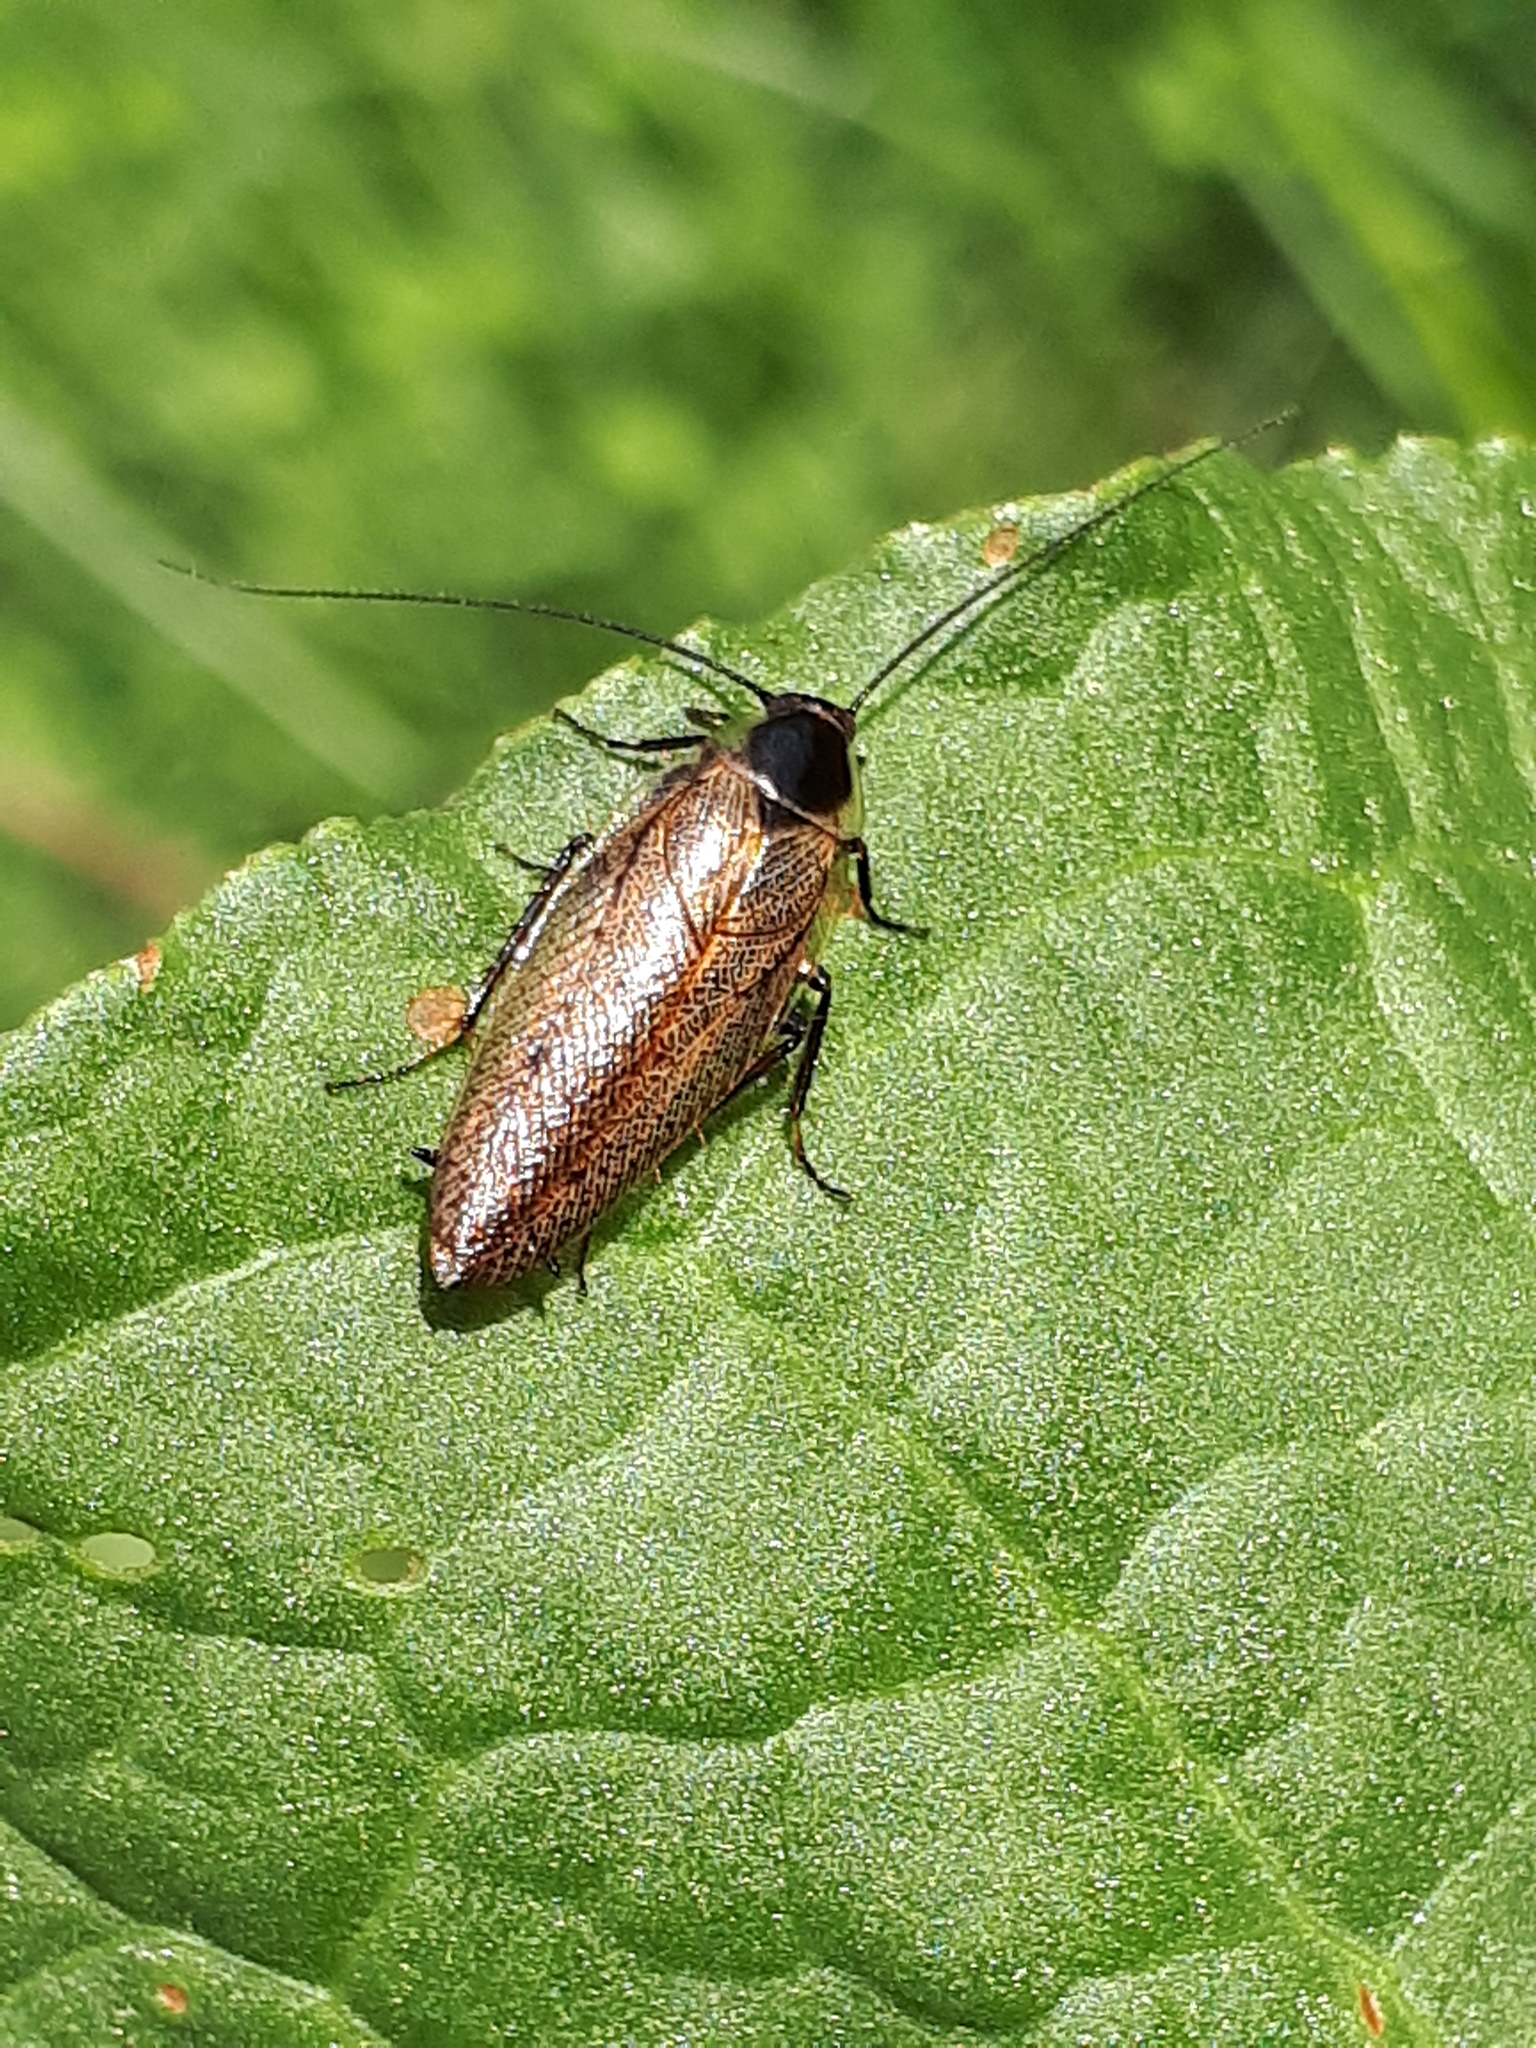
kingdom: Animalia
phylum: Arthropoda
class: Insecta
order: Blattodea
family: Ectobiidae
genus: Ectobius
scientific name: Ectobius lapponicus
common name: Dusky cockroach
